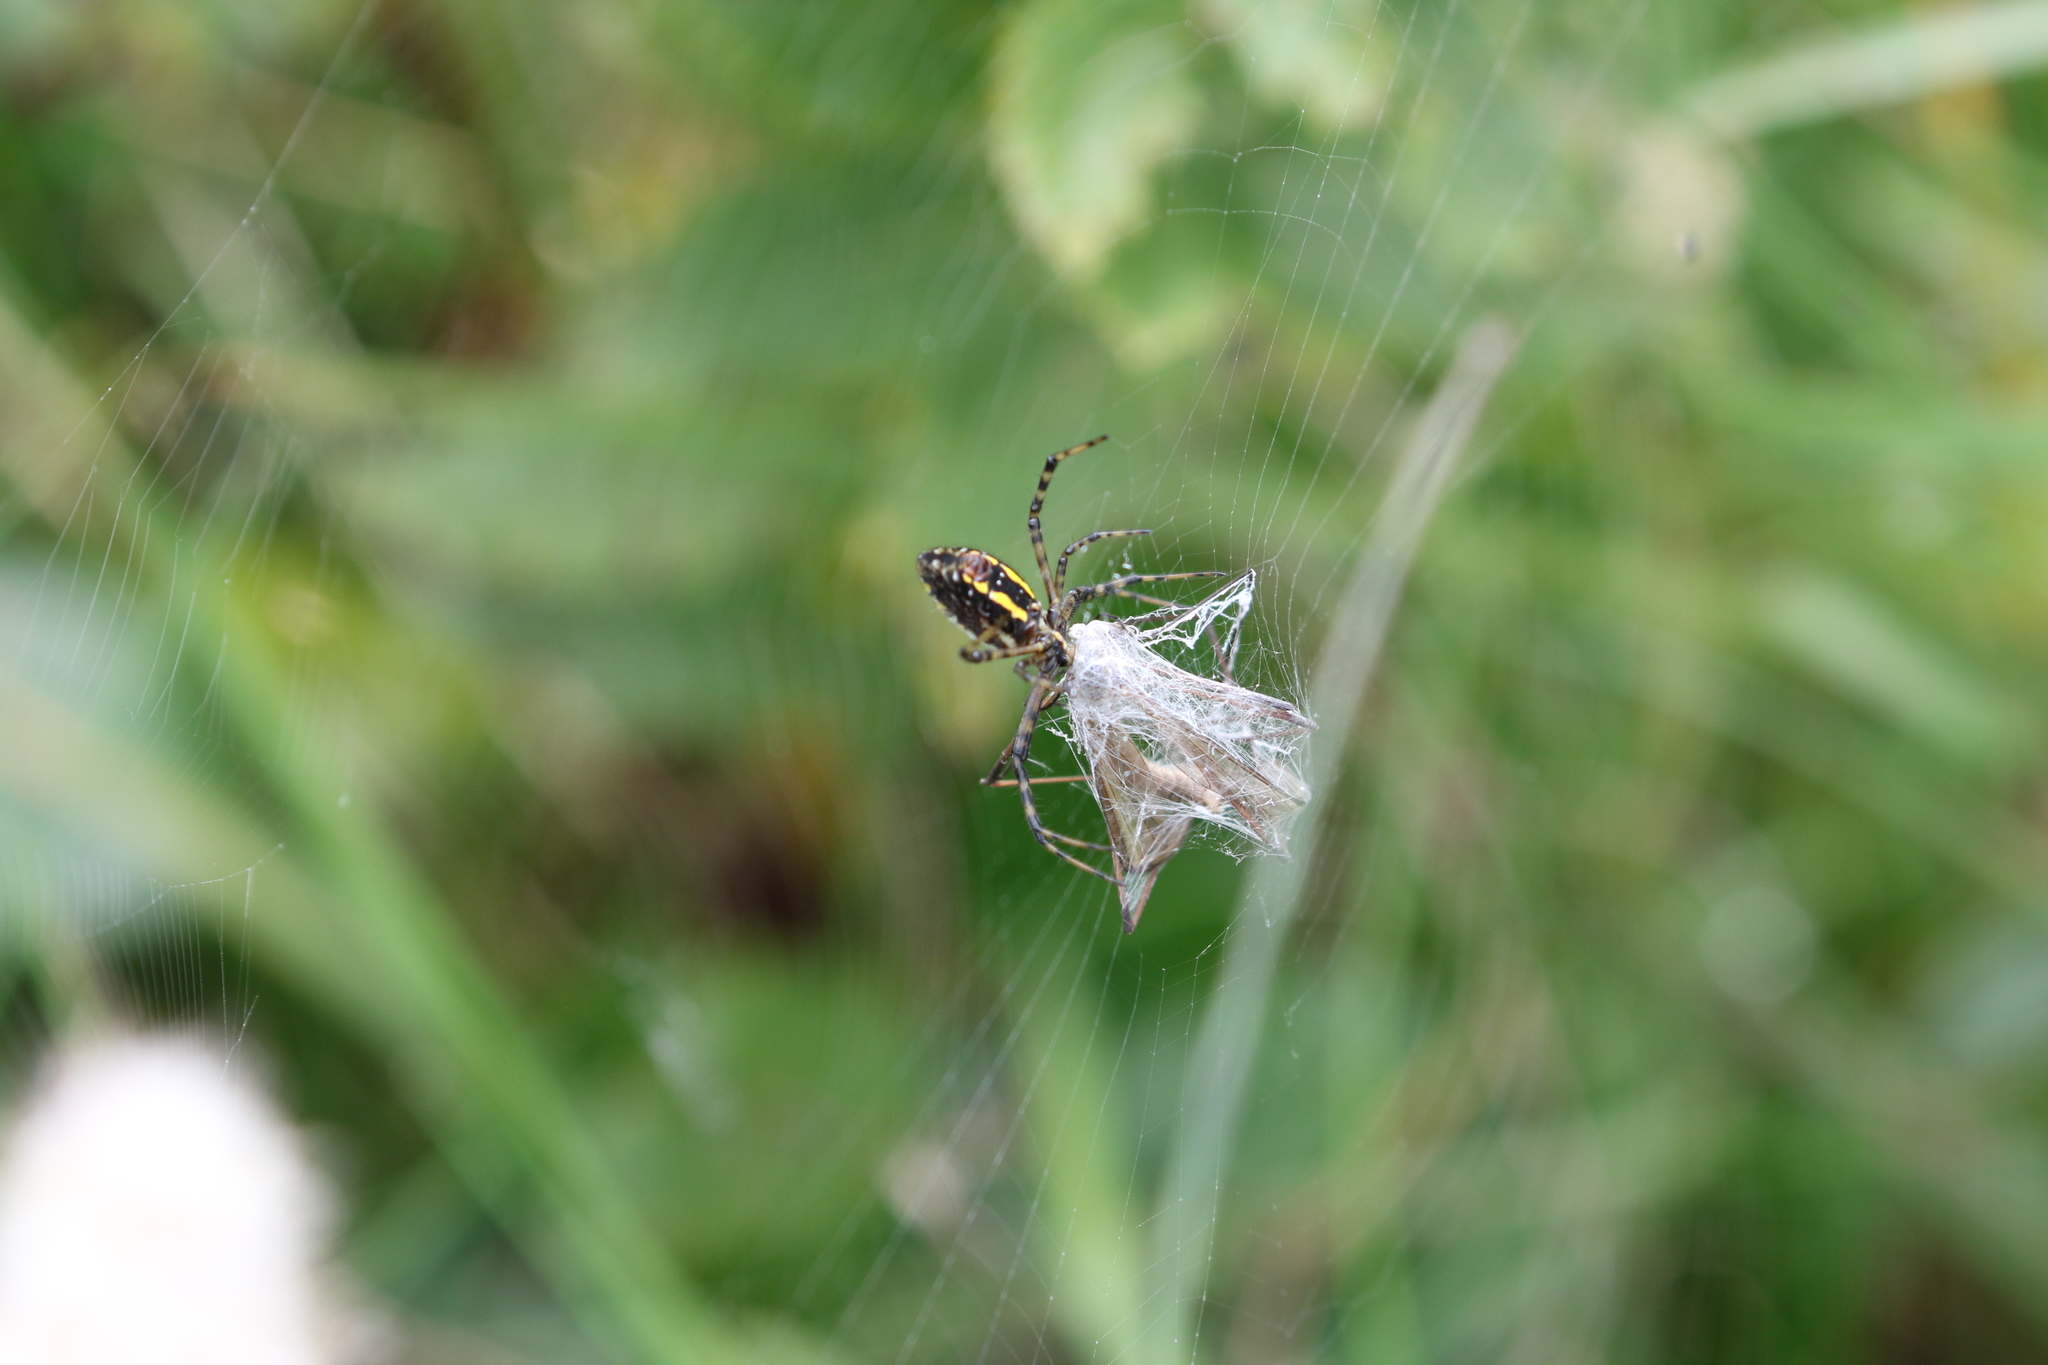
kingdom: Animalia
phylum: Arthropoda
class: Arachnida
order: Araneae
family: Araneidae
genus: Argiope
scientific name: Argiope trifasciata
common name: Banded garden spider
